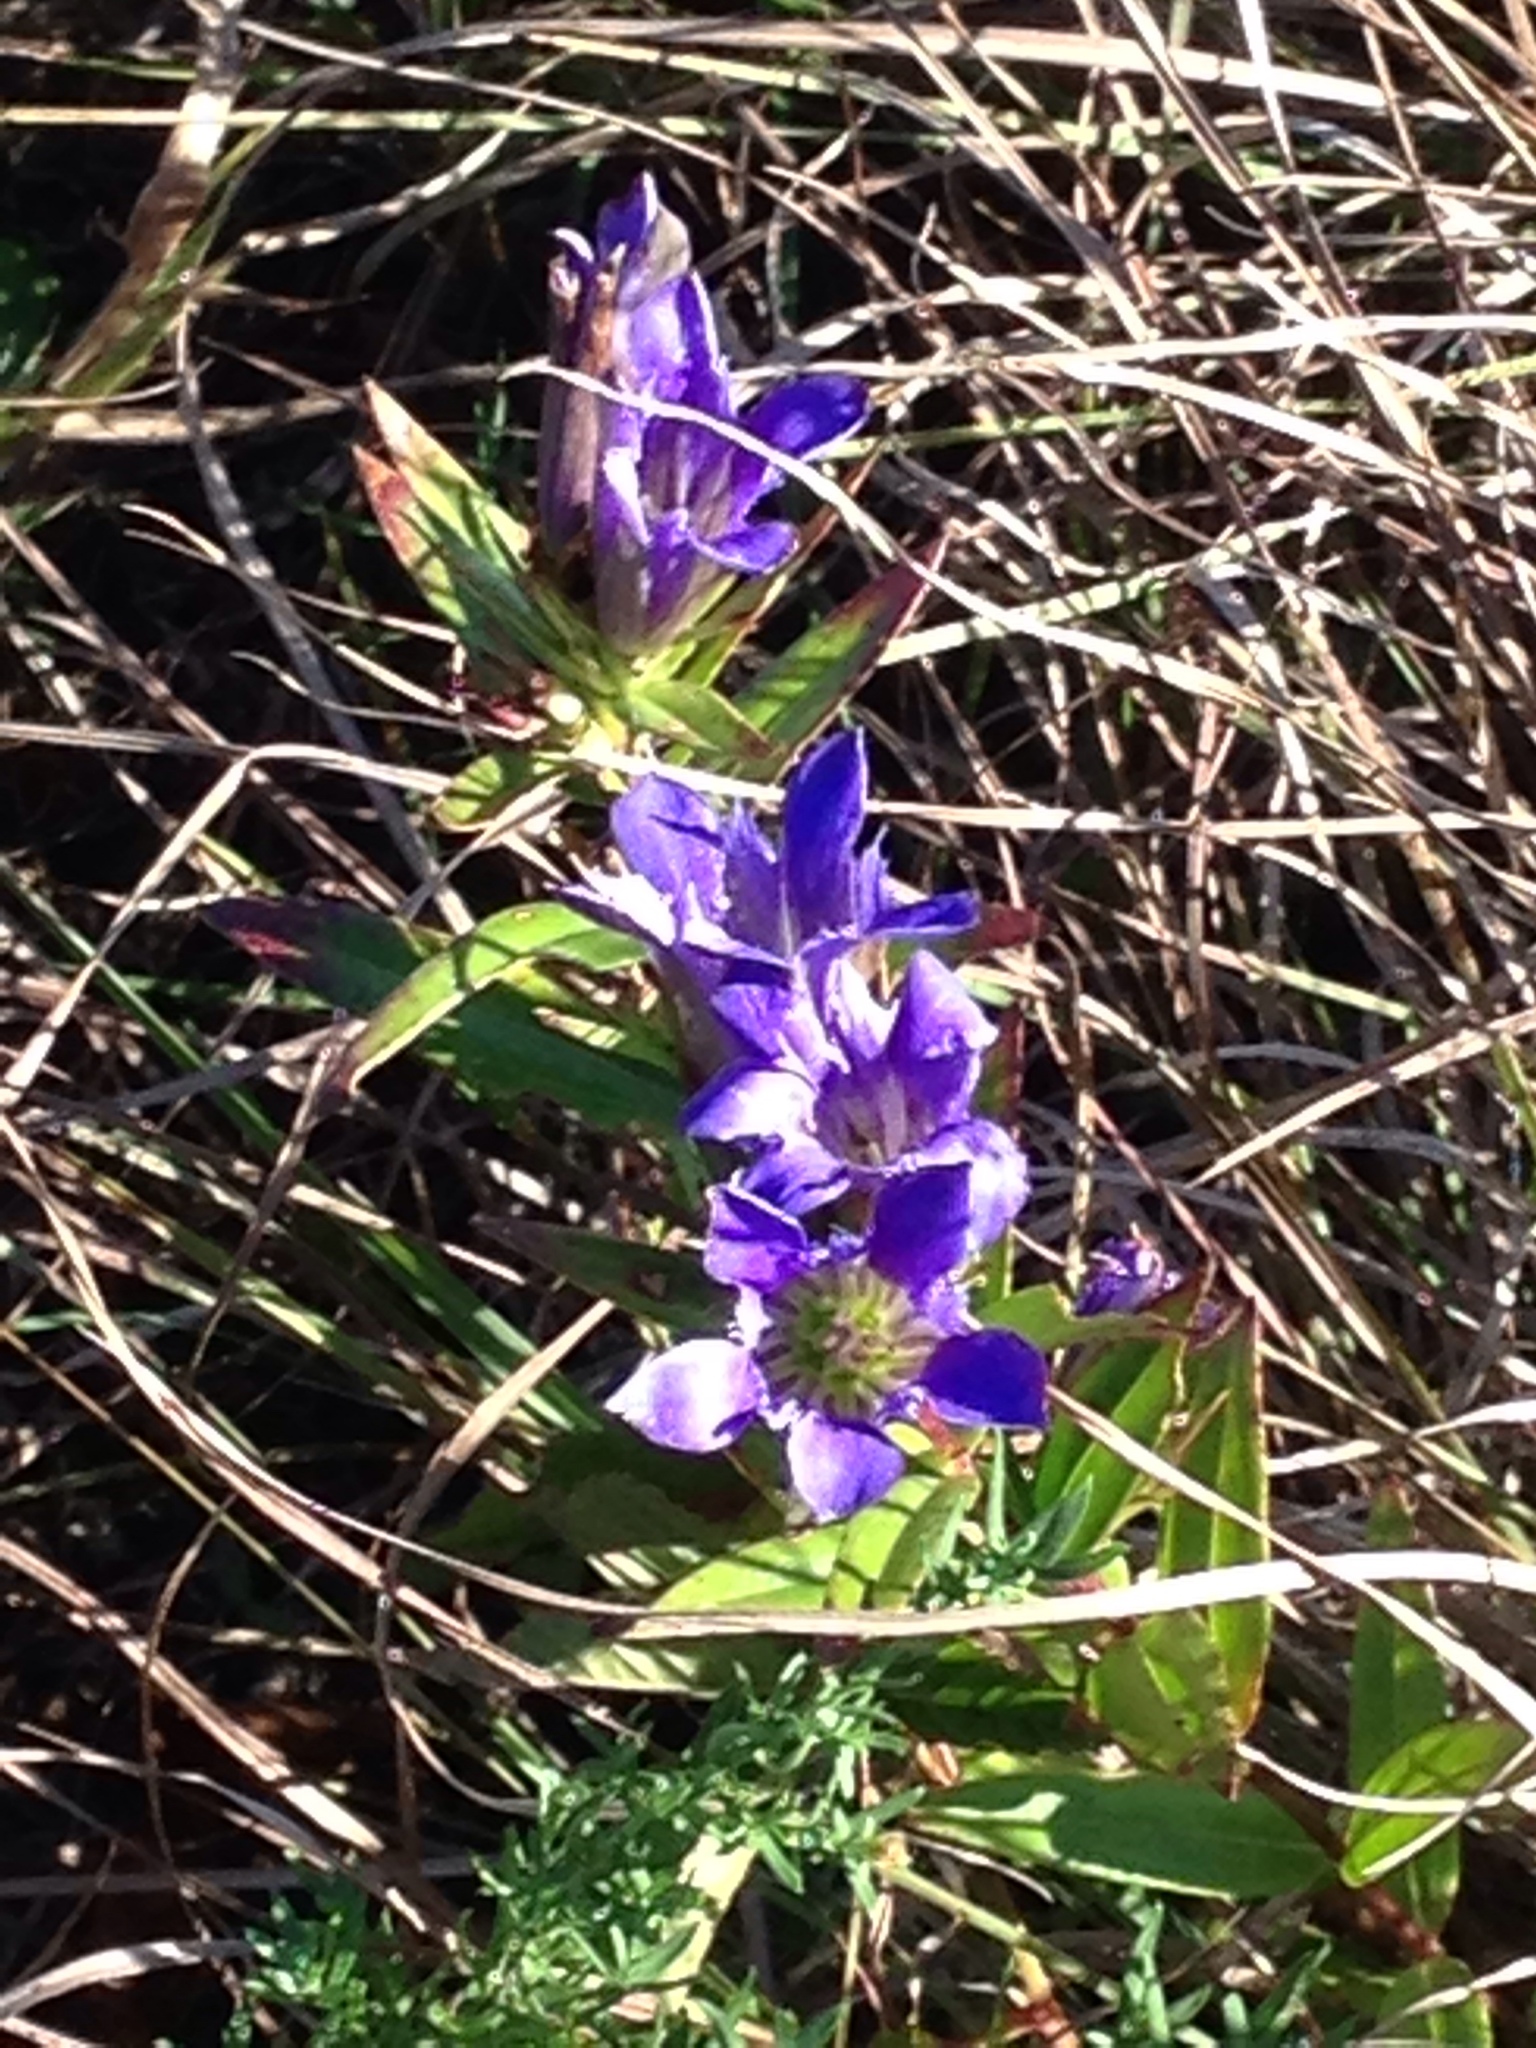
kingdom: Plantae
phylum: Tracheophyta
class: Magnoliopsida
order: Gentianales
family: Gentianaceae
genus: Gentiana
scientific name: Gentiana puberulenta
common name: Downy gentian
